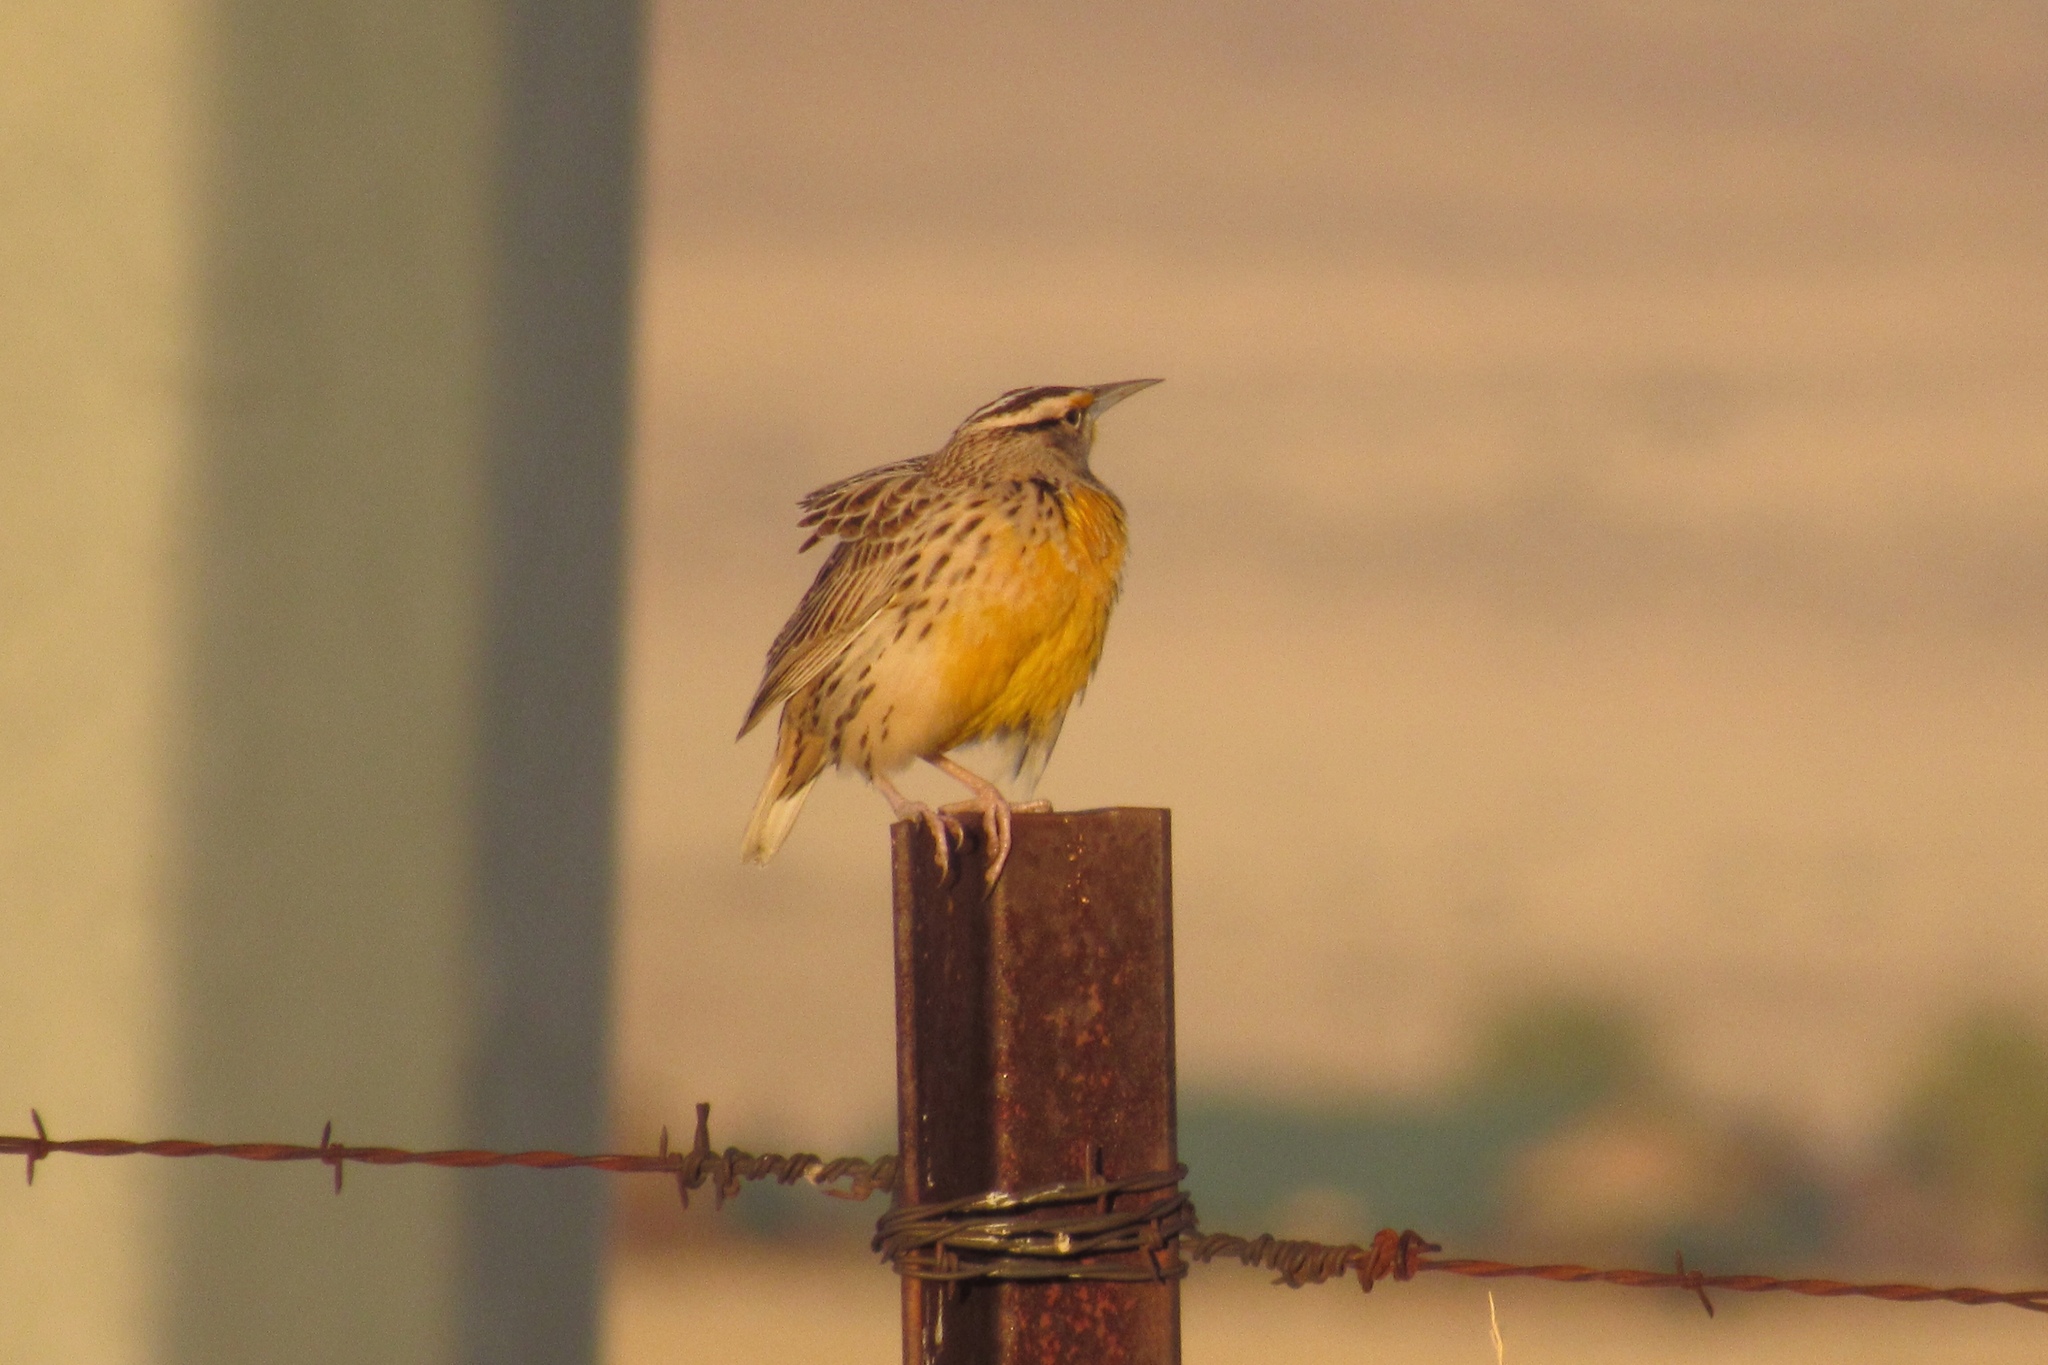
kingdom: Animalia
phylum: Chordata
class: Aves
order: Passeriformes
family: Icteridae
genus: Sturnella
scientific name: Sturnella lilianae
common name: Lilian's meadowlark
